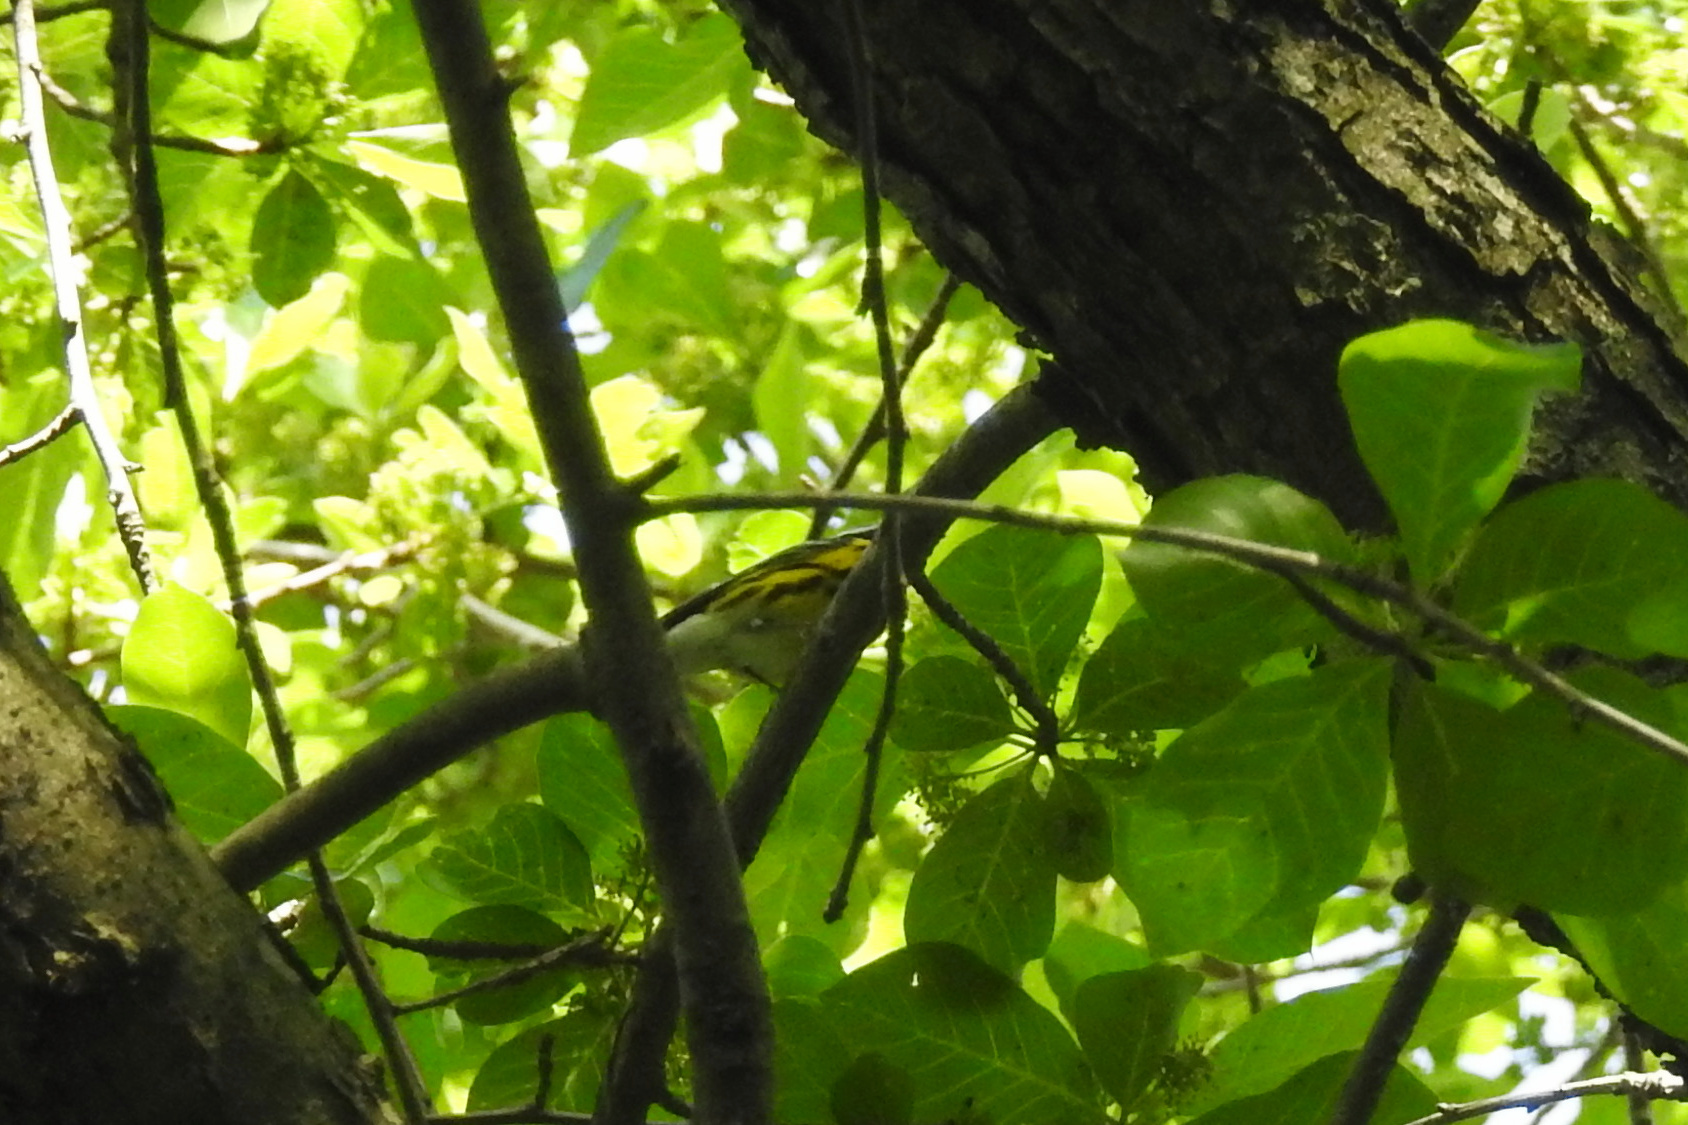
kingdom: Animalia
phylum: Chordata
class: Aves
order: Passeriformes
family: Parulidae
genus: Setophaga
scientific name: Setophaga magnolia
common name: Magnolia warbler
